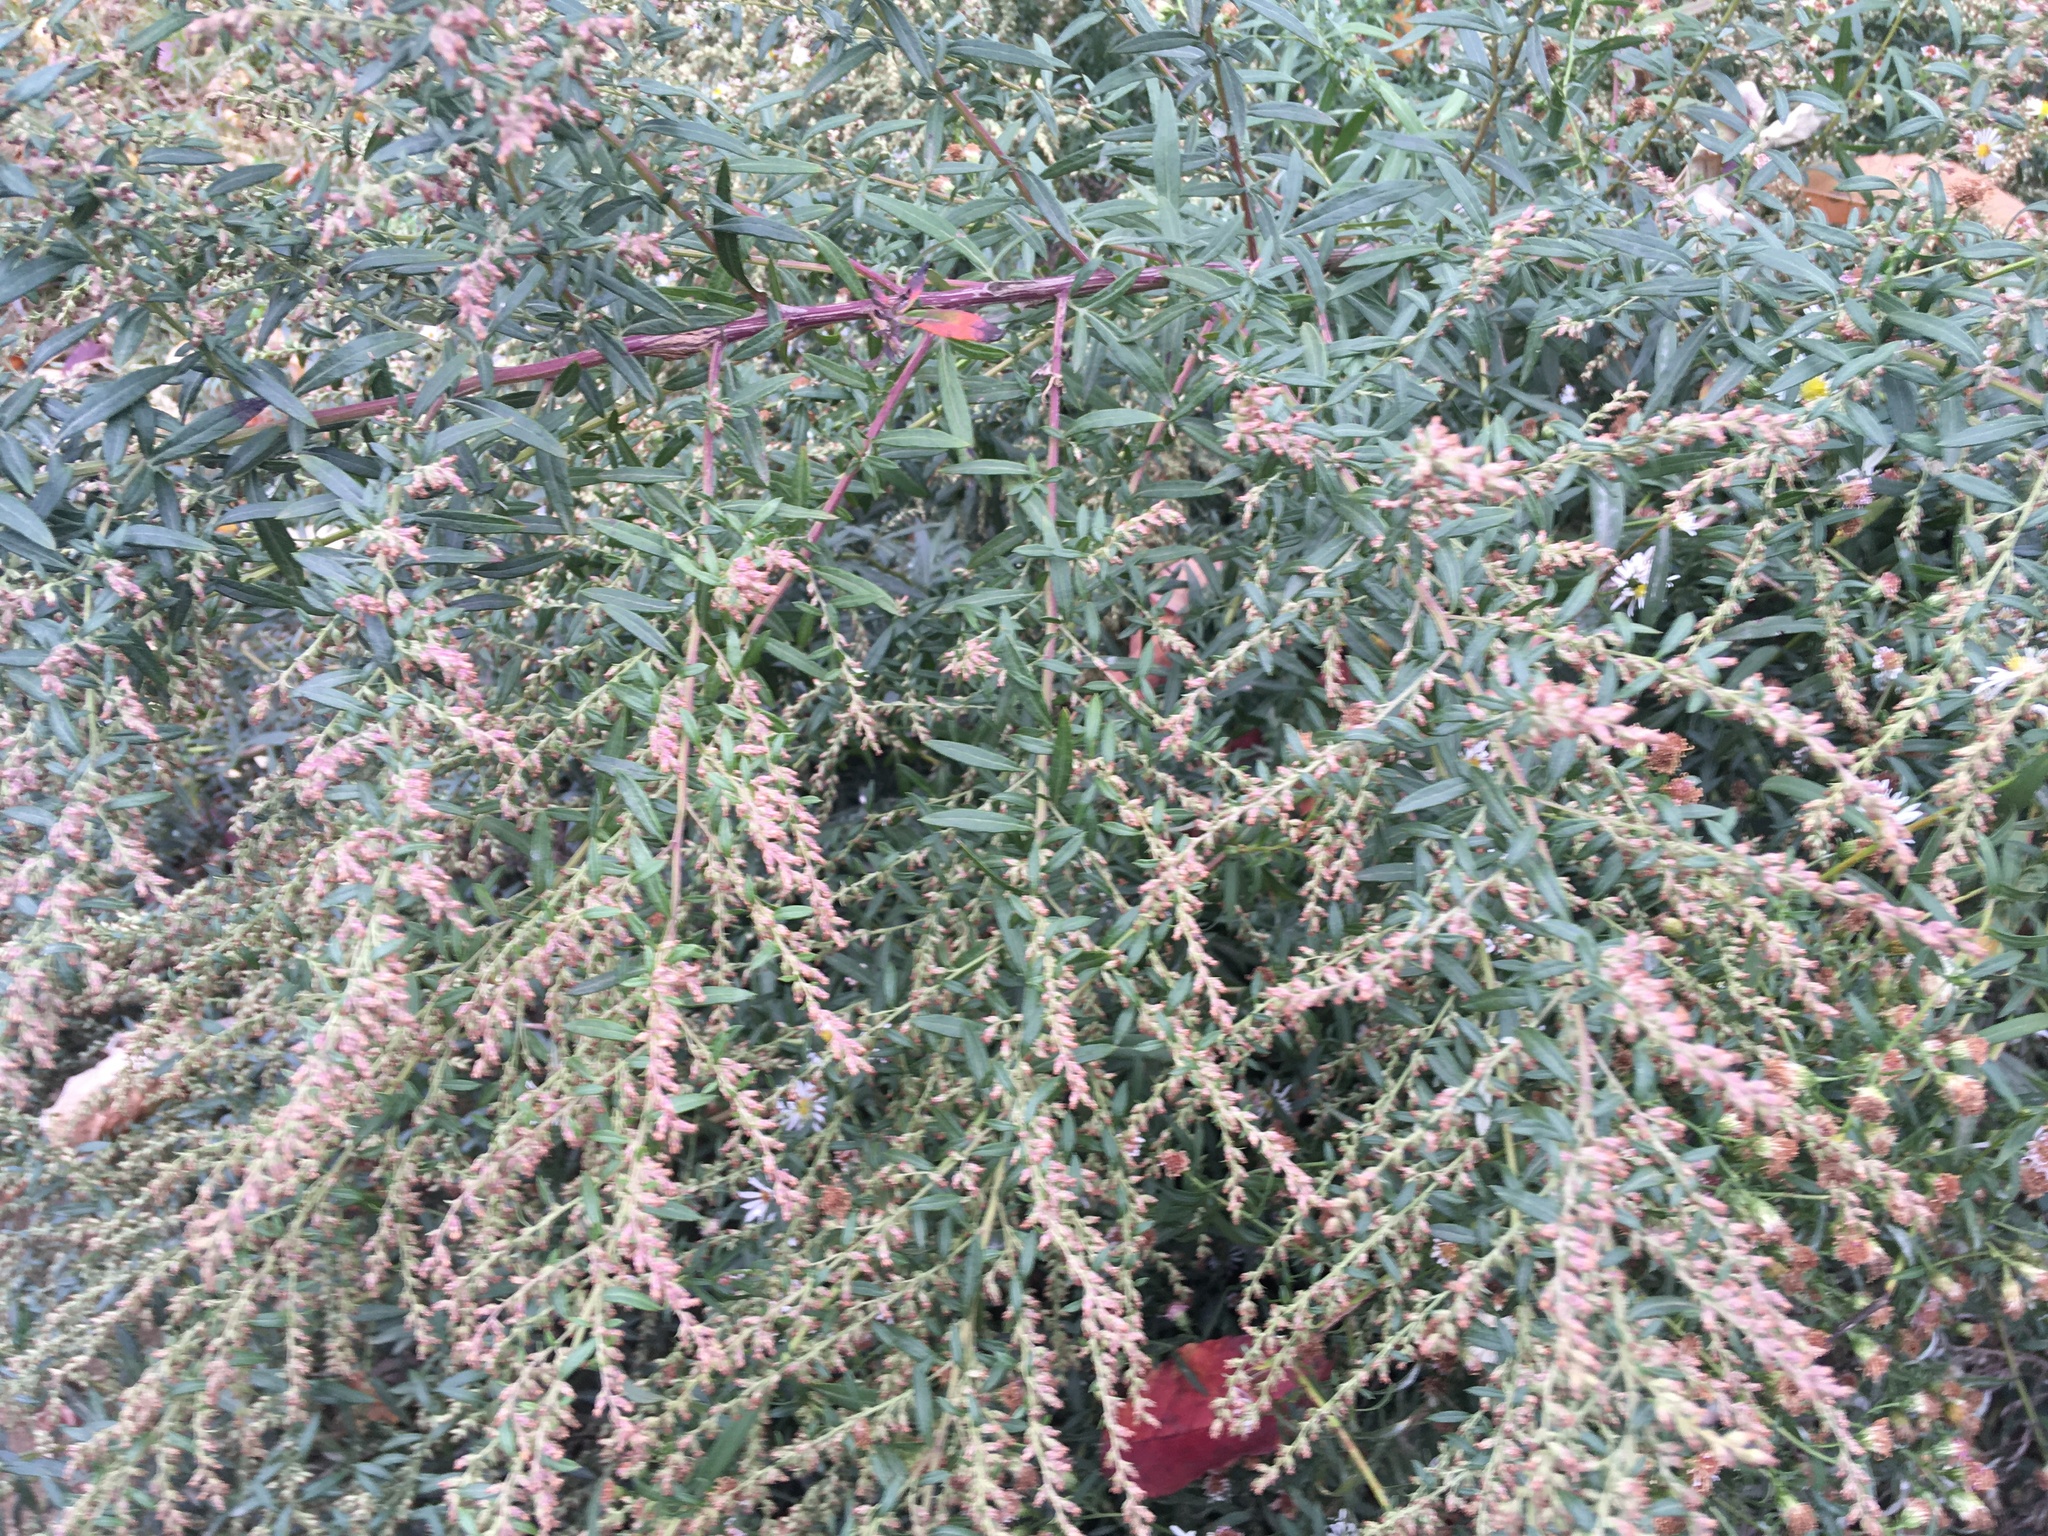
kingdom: Plantae
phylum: Tracheophyta
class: Magnoliopsida
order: Asterales
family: Asteraceae
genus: Artemisia
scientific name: Artemisia vulgaris
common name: Mugwort
